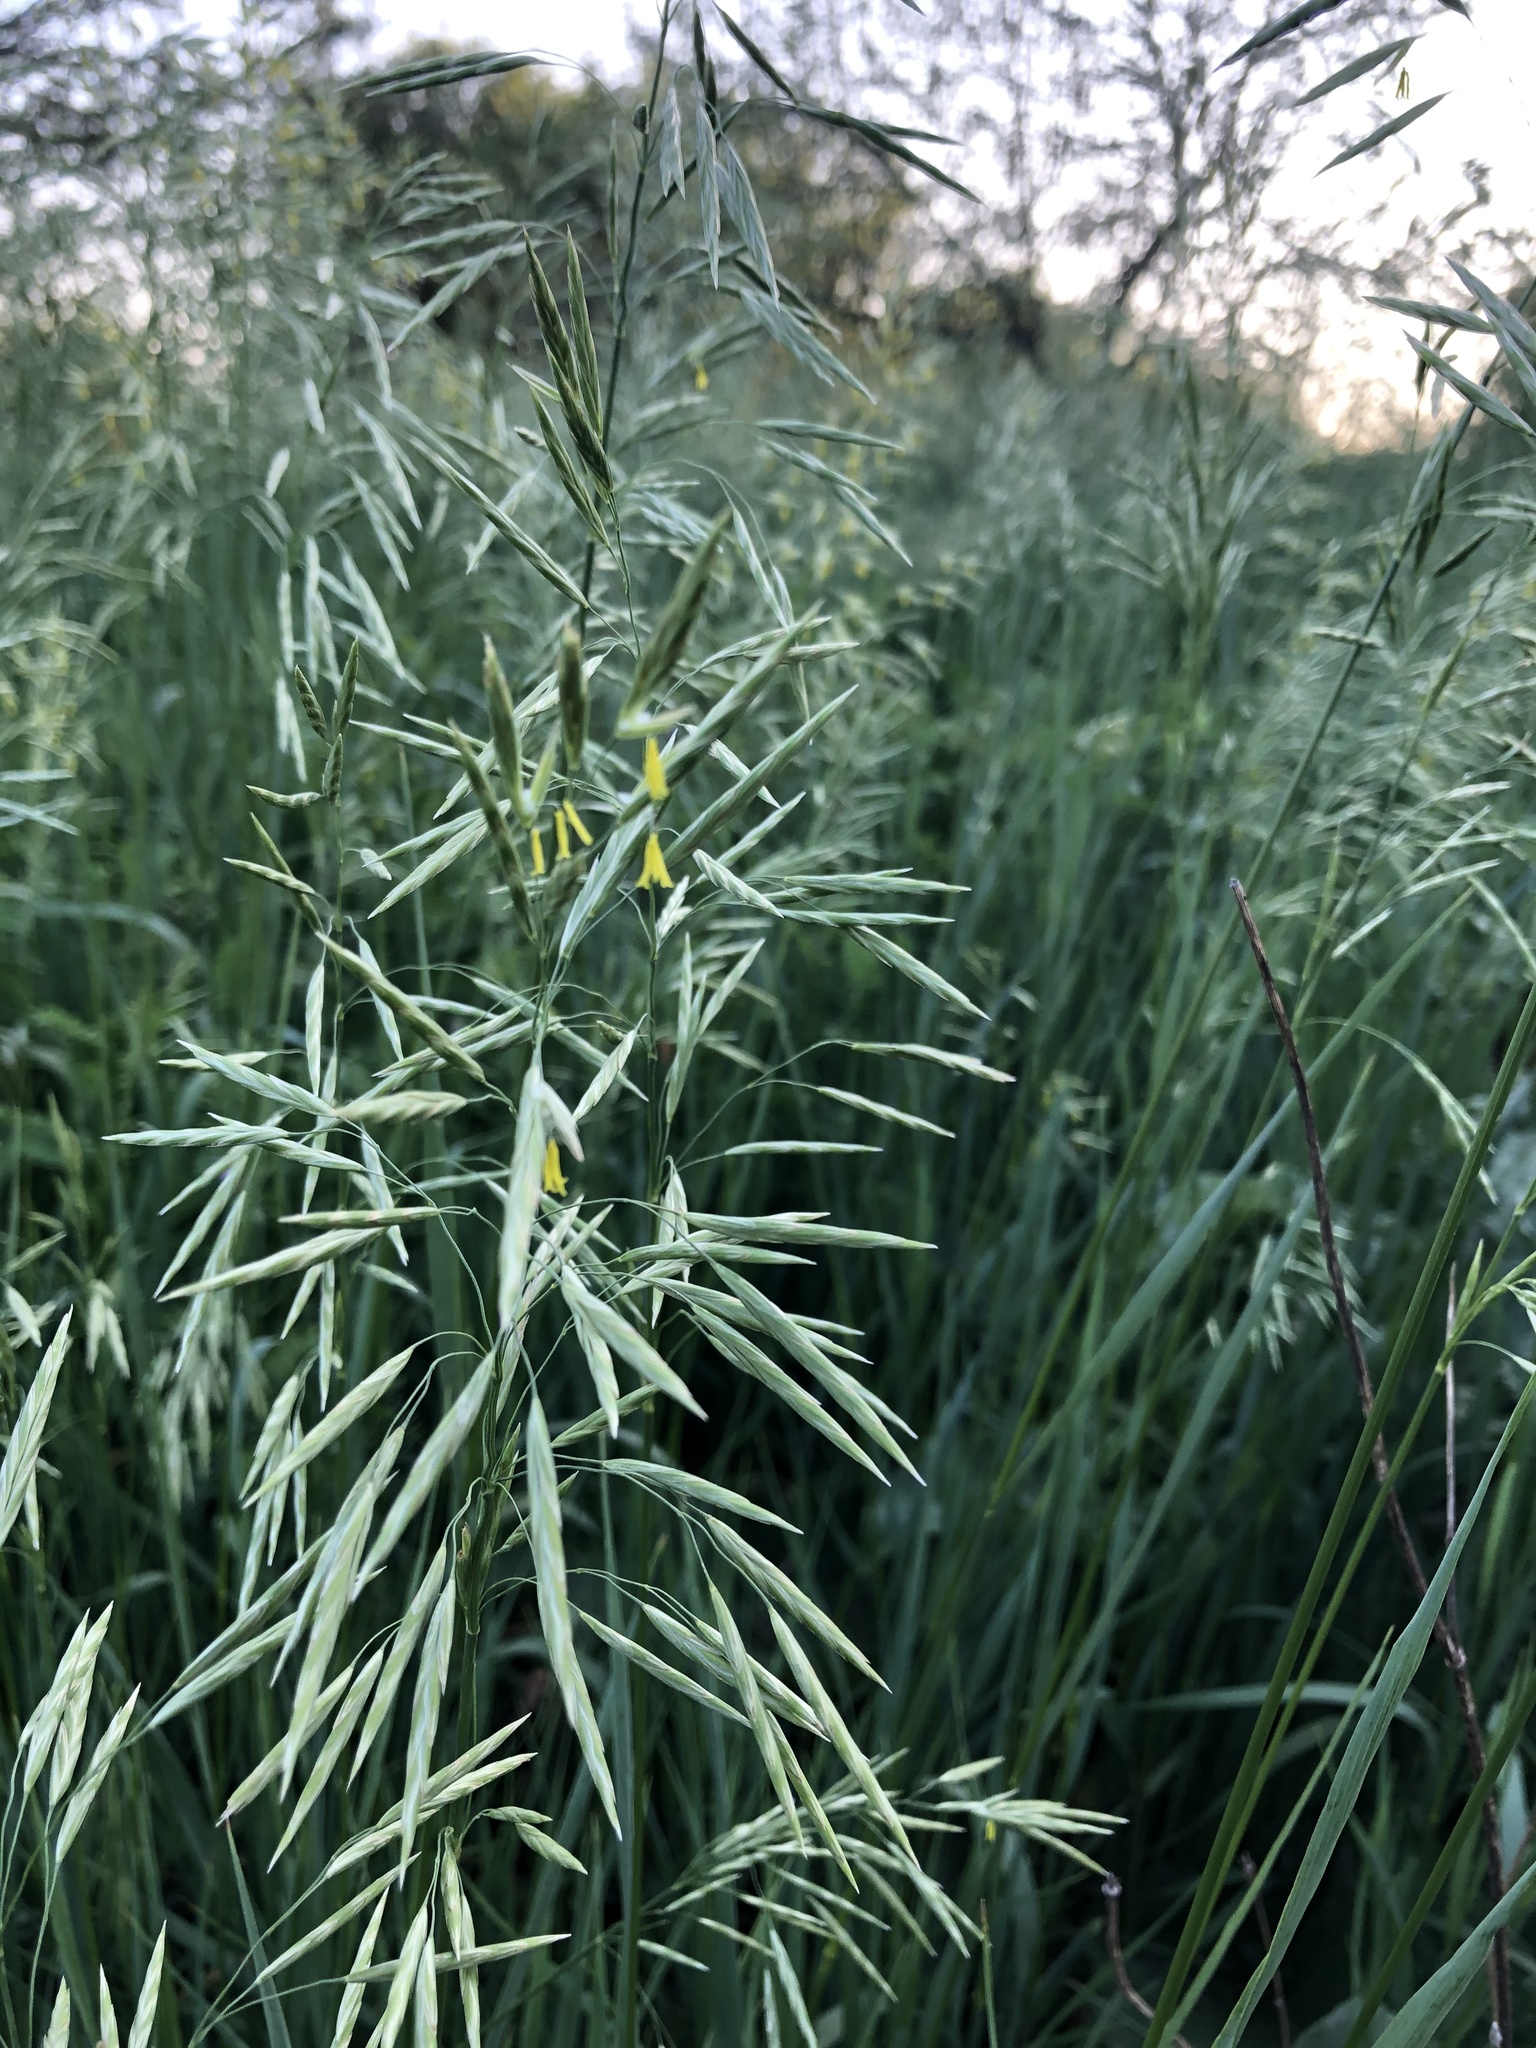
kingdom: Plantae
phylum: Tracheophyta
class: Liliopsida
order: Poales
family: Poaceae
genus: Bromus
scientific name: Bromus inermis
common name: Smooth brome
